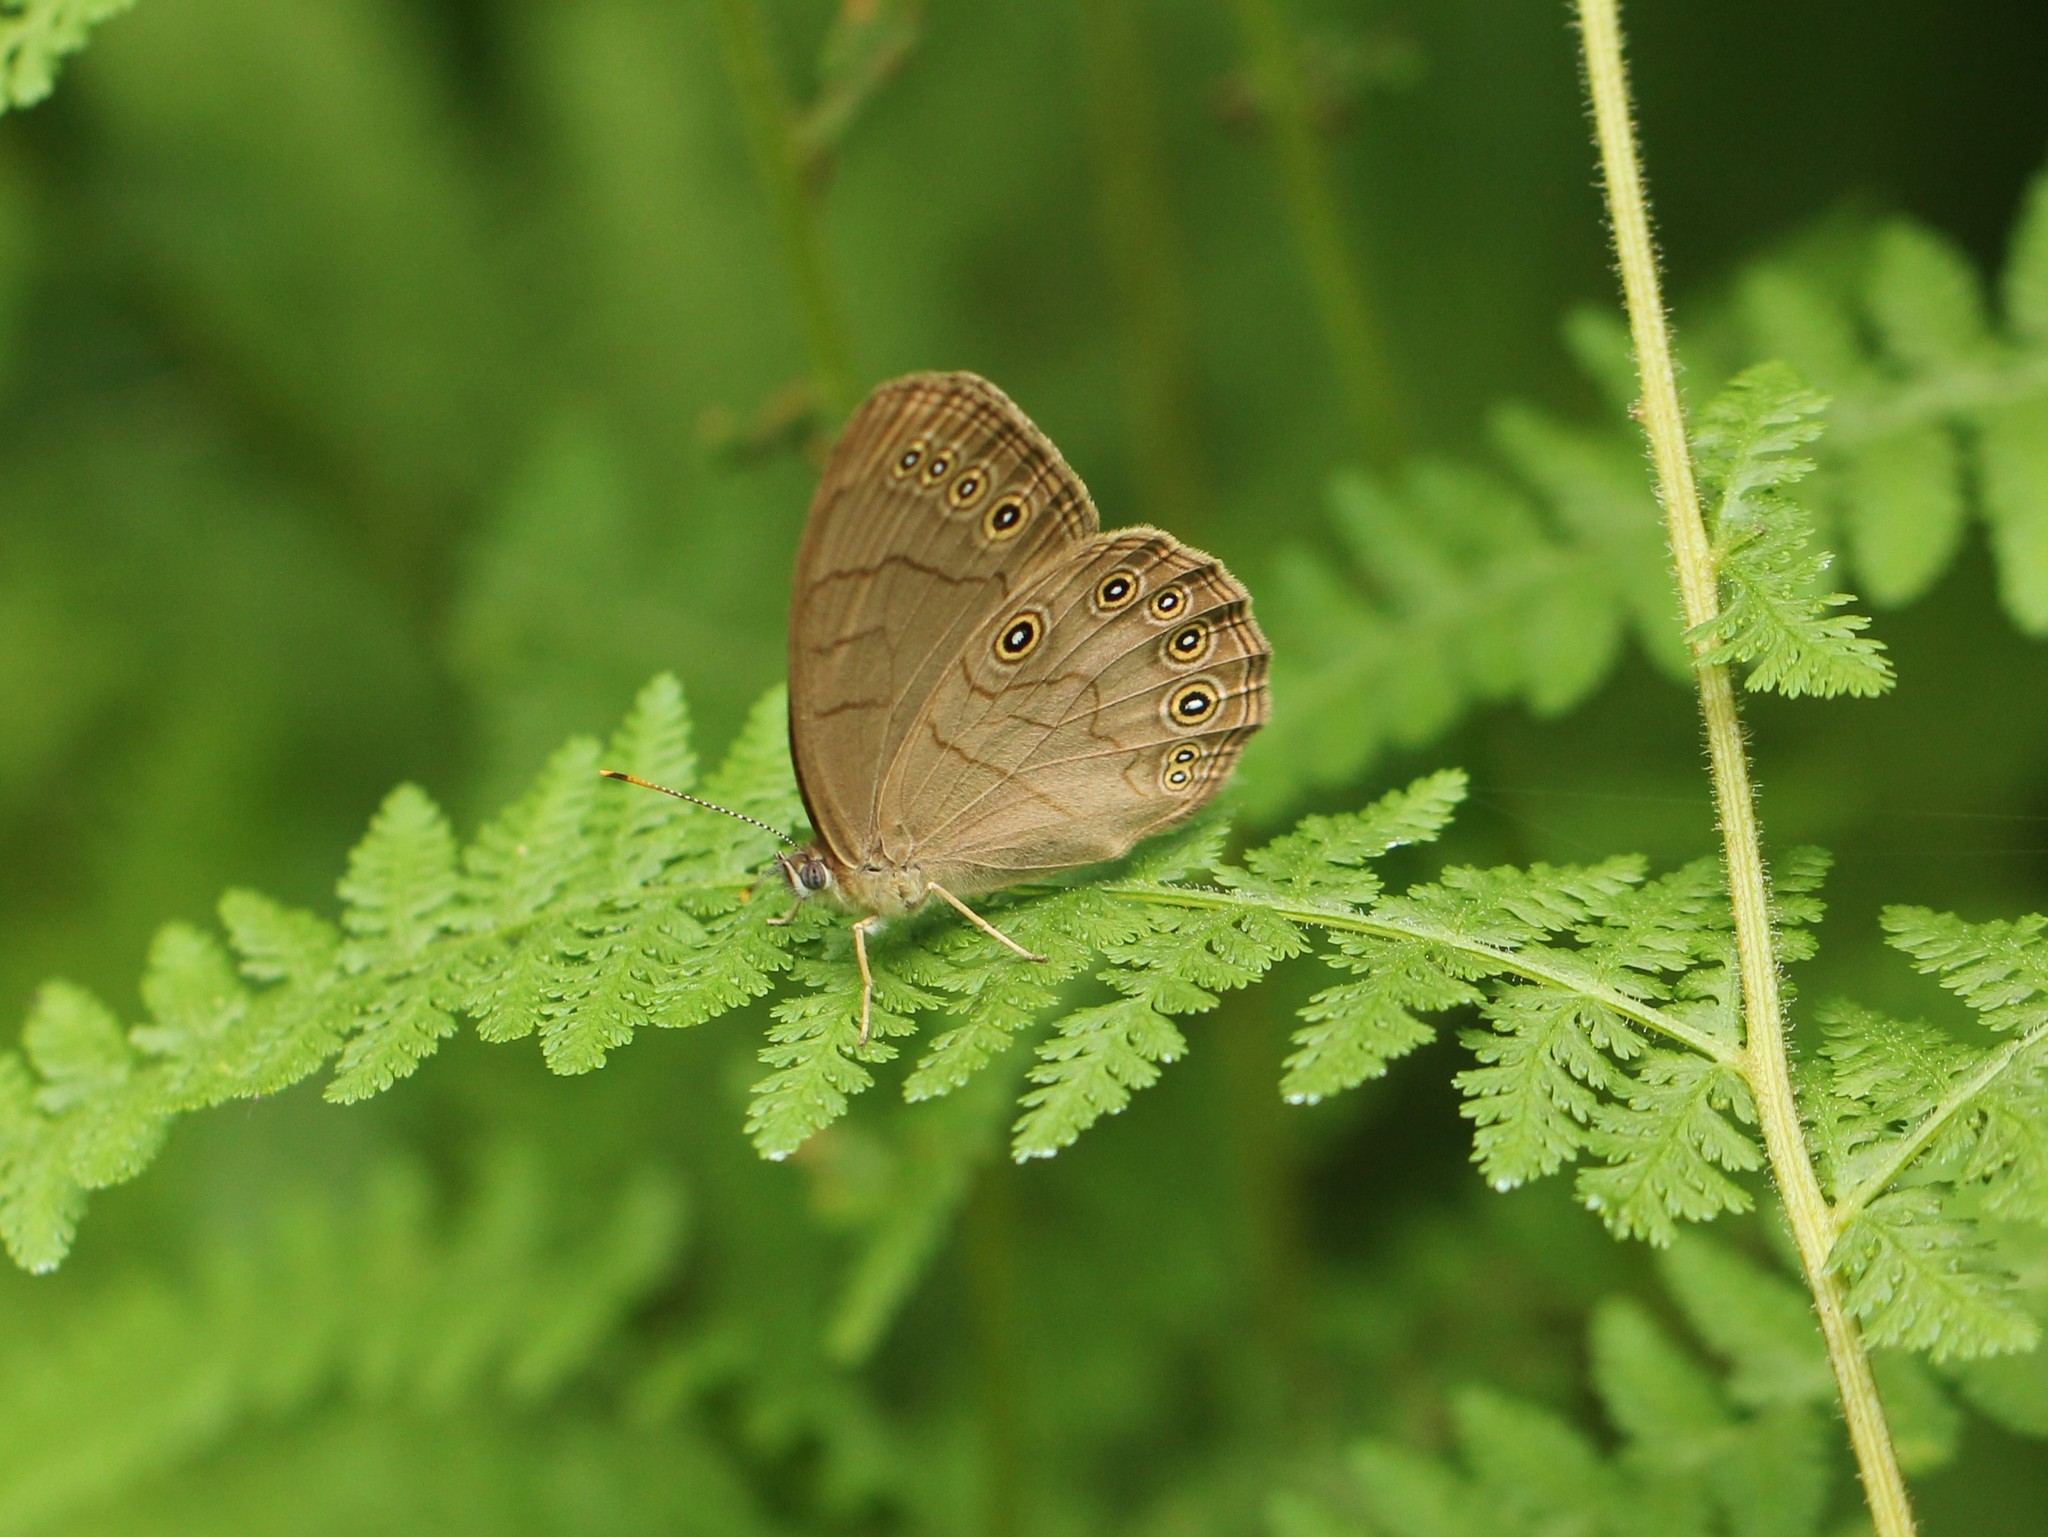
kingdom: Animalia
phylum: Arthropoda
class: Insecta
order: Lepidoptera
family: Nymphalidae
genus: Lethe
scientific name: Lethe eurydice
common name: Eyed brown
